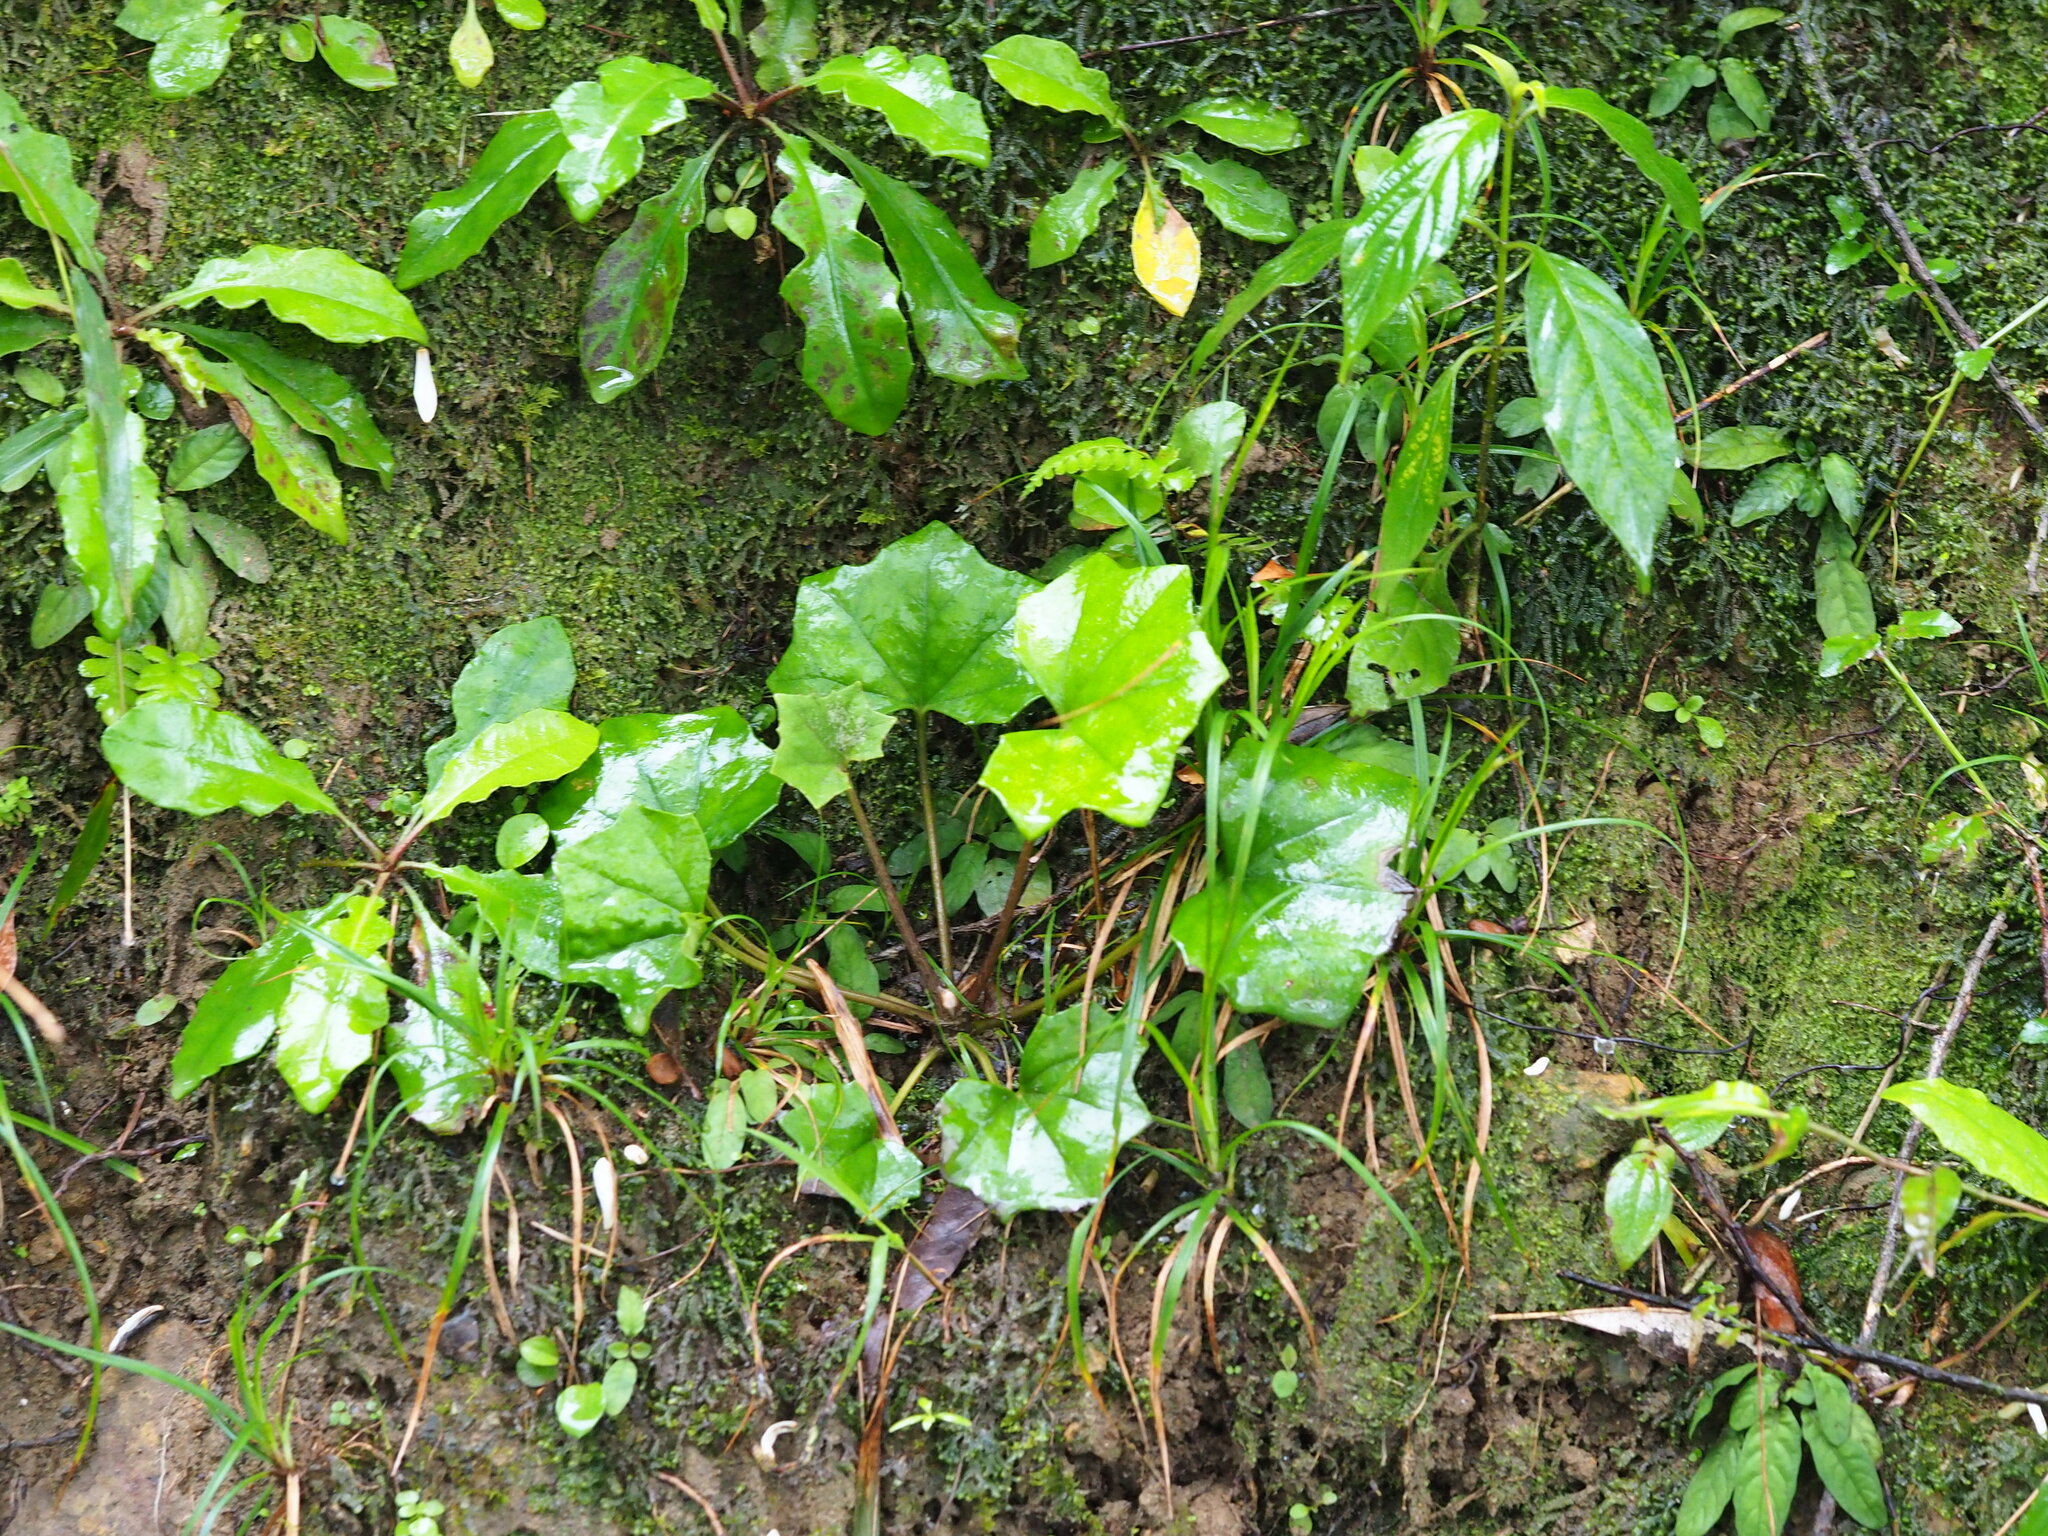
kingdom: Plantae
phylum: Tracheophyta
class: Magnoliopsida
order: Asterales
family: Asteraceae
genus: Farfugium
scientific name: Farfugium japonicum
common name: Leopardplant
